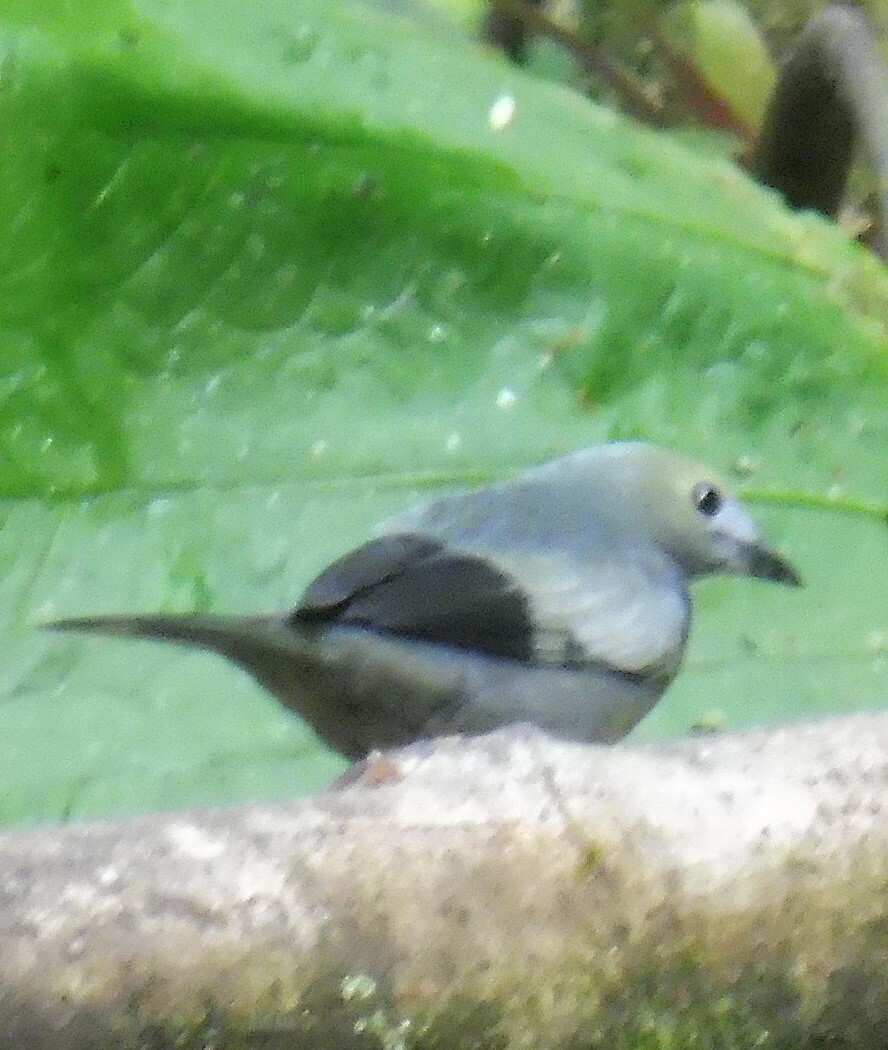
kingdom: Animalia
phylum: Chordata
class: Aves
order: Passeriformes
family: Thraupidae
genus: Thraupis
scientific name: Thraupis palmarum
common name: Palm tanager
